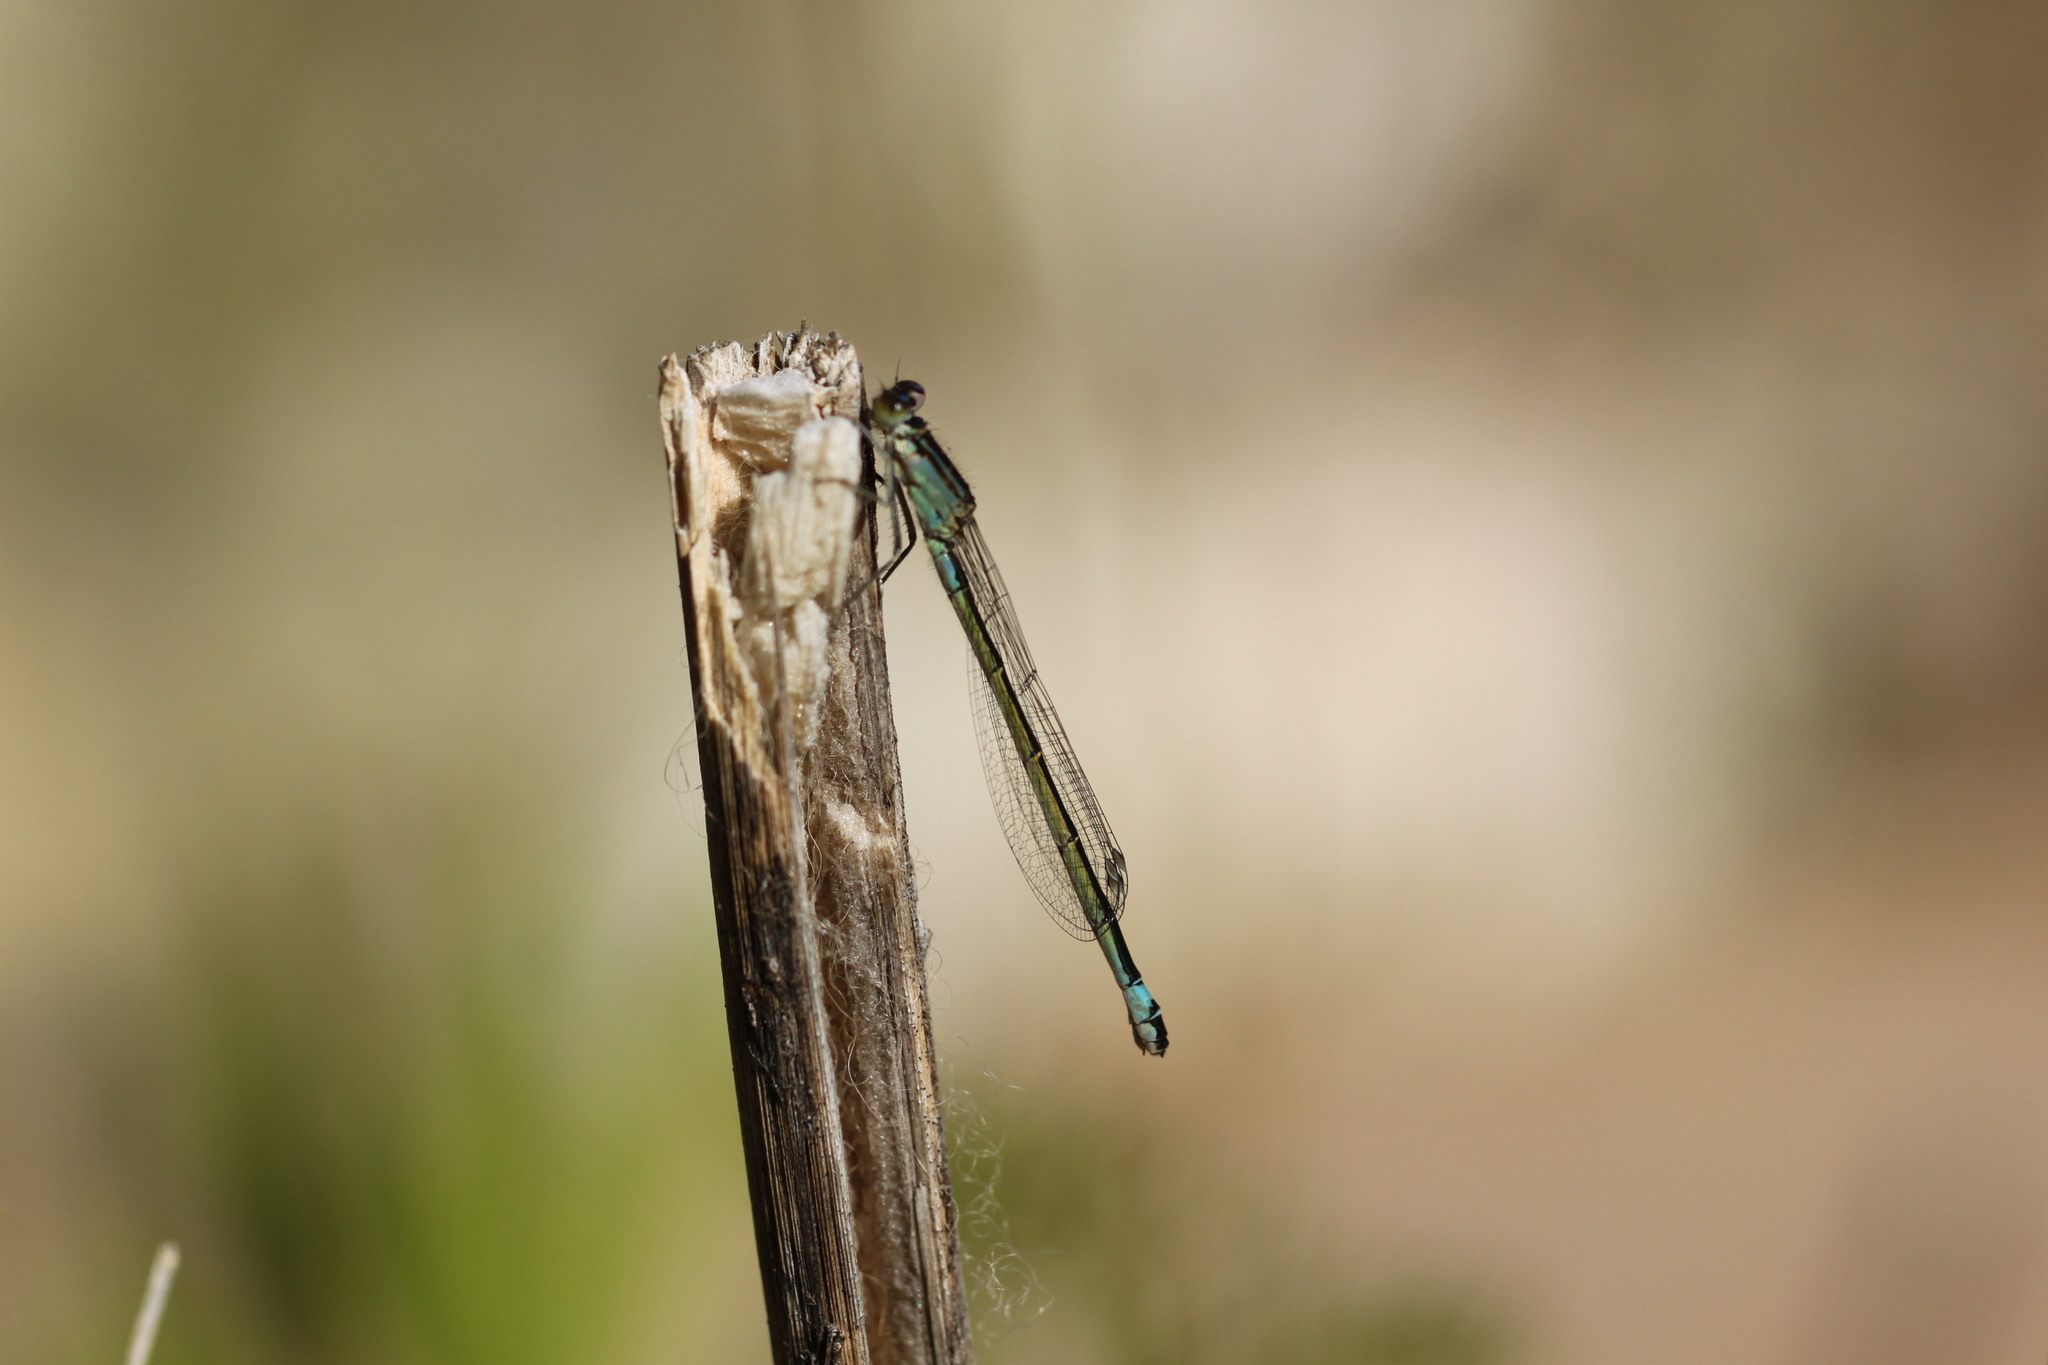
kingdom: Animalia
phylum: Arthropoda
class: Insecta
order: Odonata
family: Coenagrionidae
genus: Ischnura
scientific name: Ischnura elegans
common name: Blue-tailed damselfly
